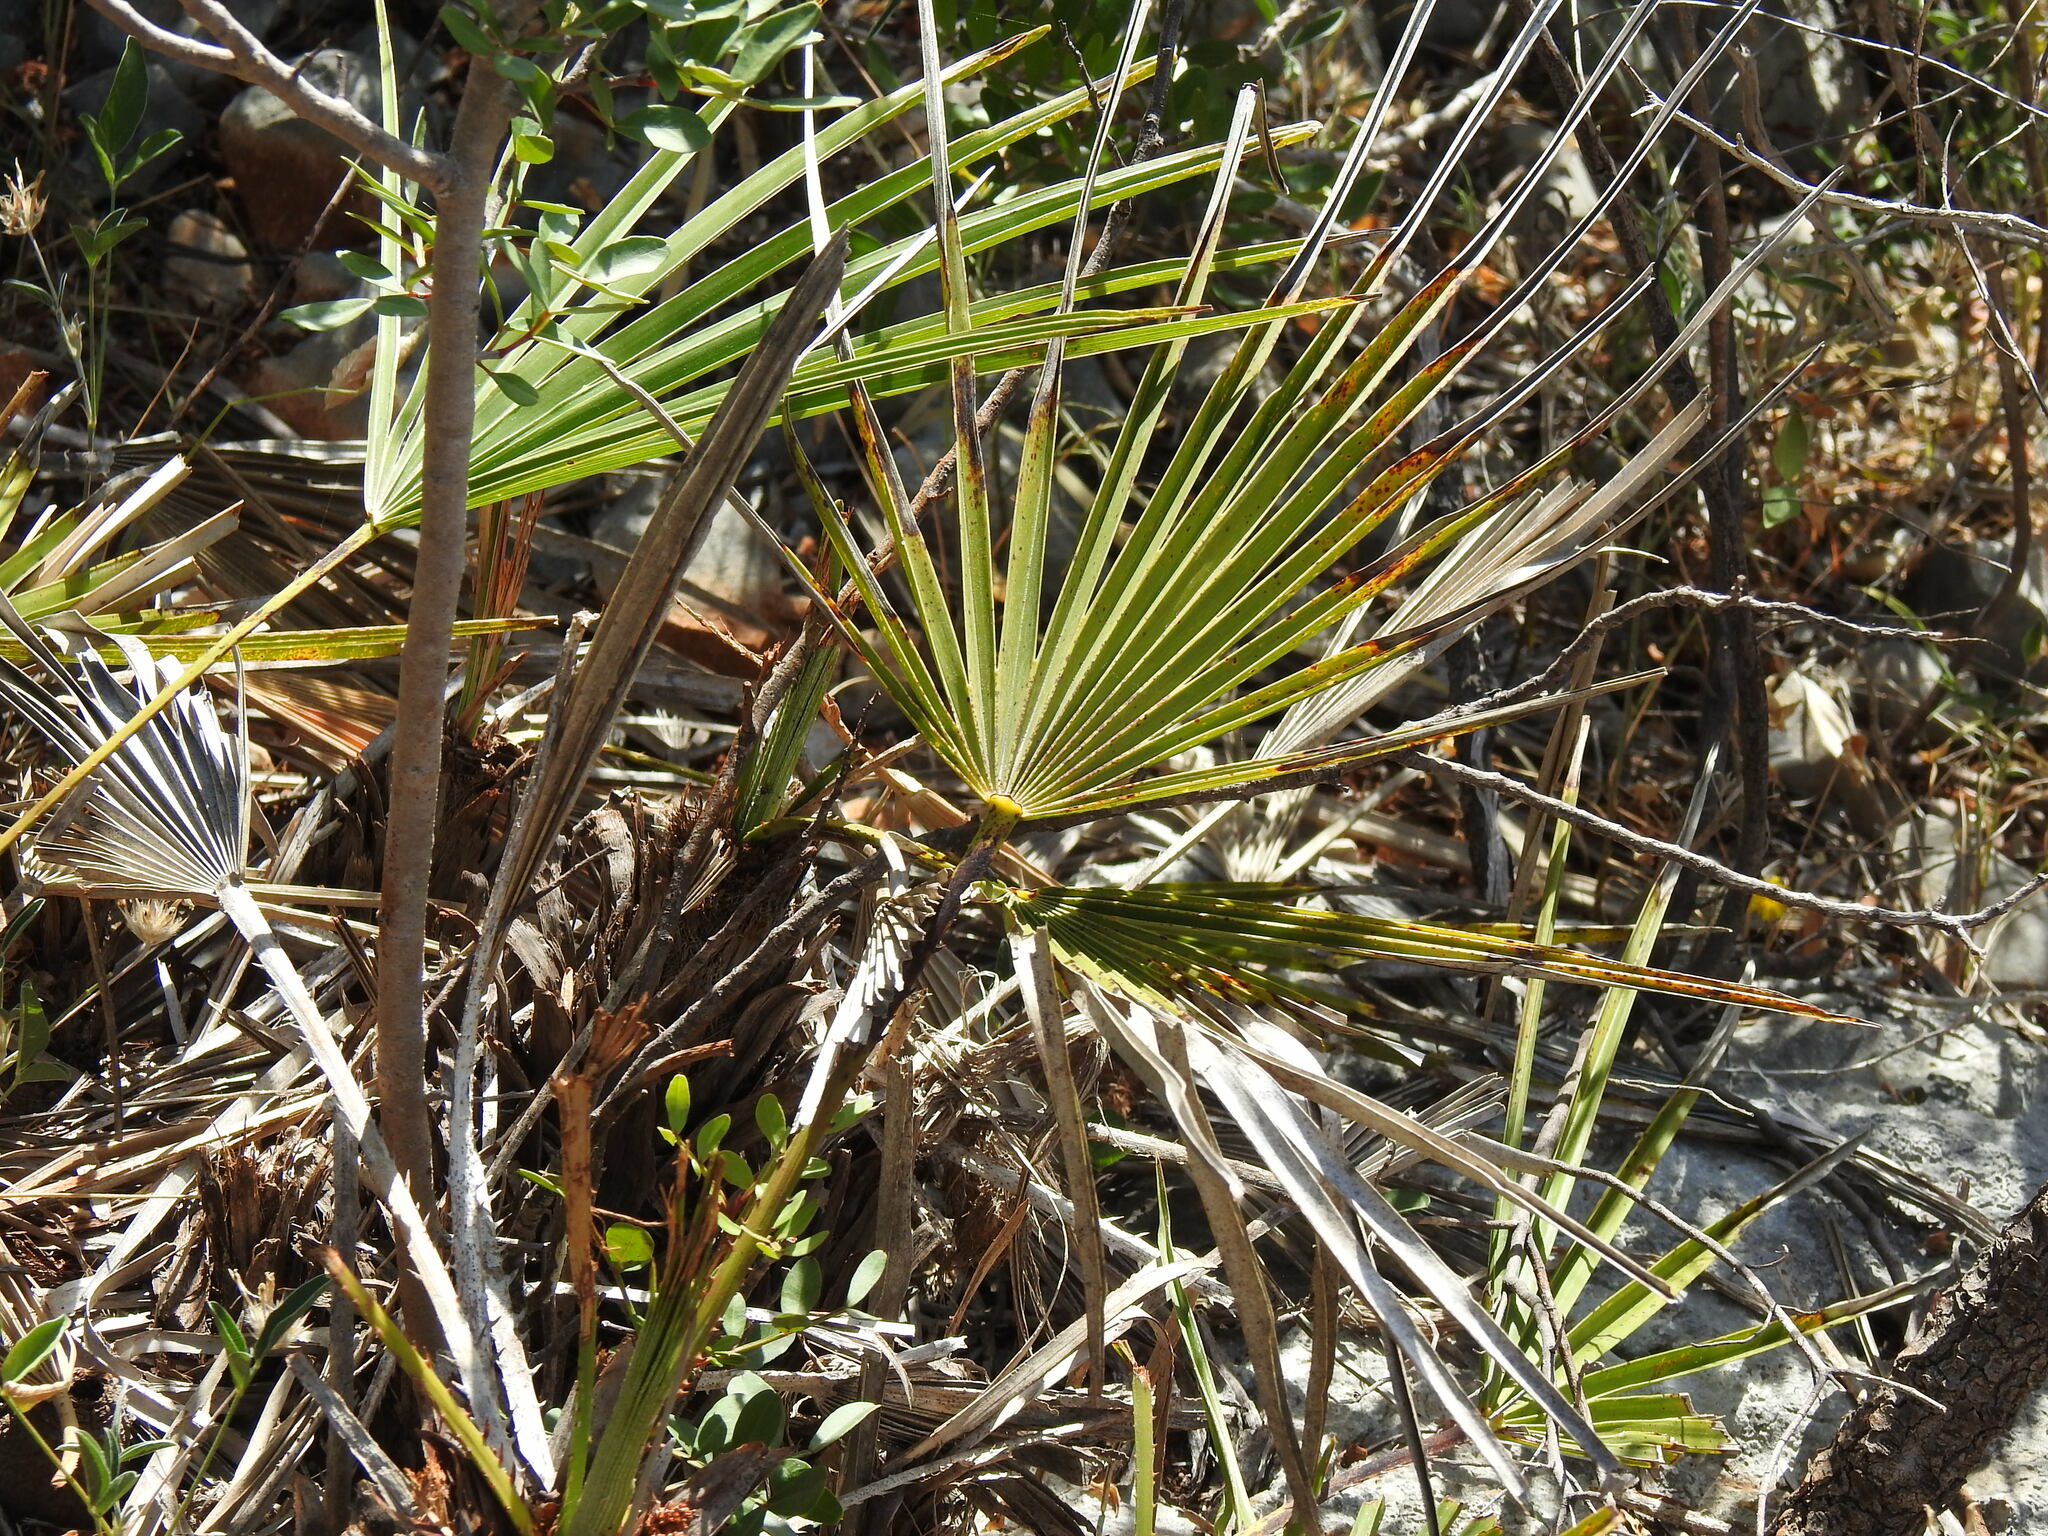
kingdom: Plantae
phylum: Tracheophyta
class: Liliopsida
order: Arecales
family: Arecaceae
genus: Chamaerops
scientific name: Chamaerops humilis
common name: Dwarf fan palm
